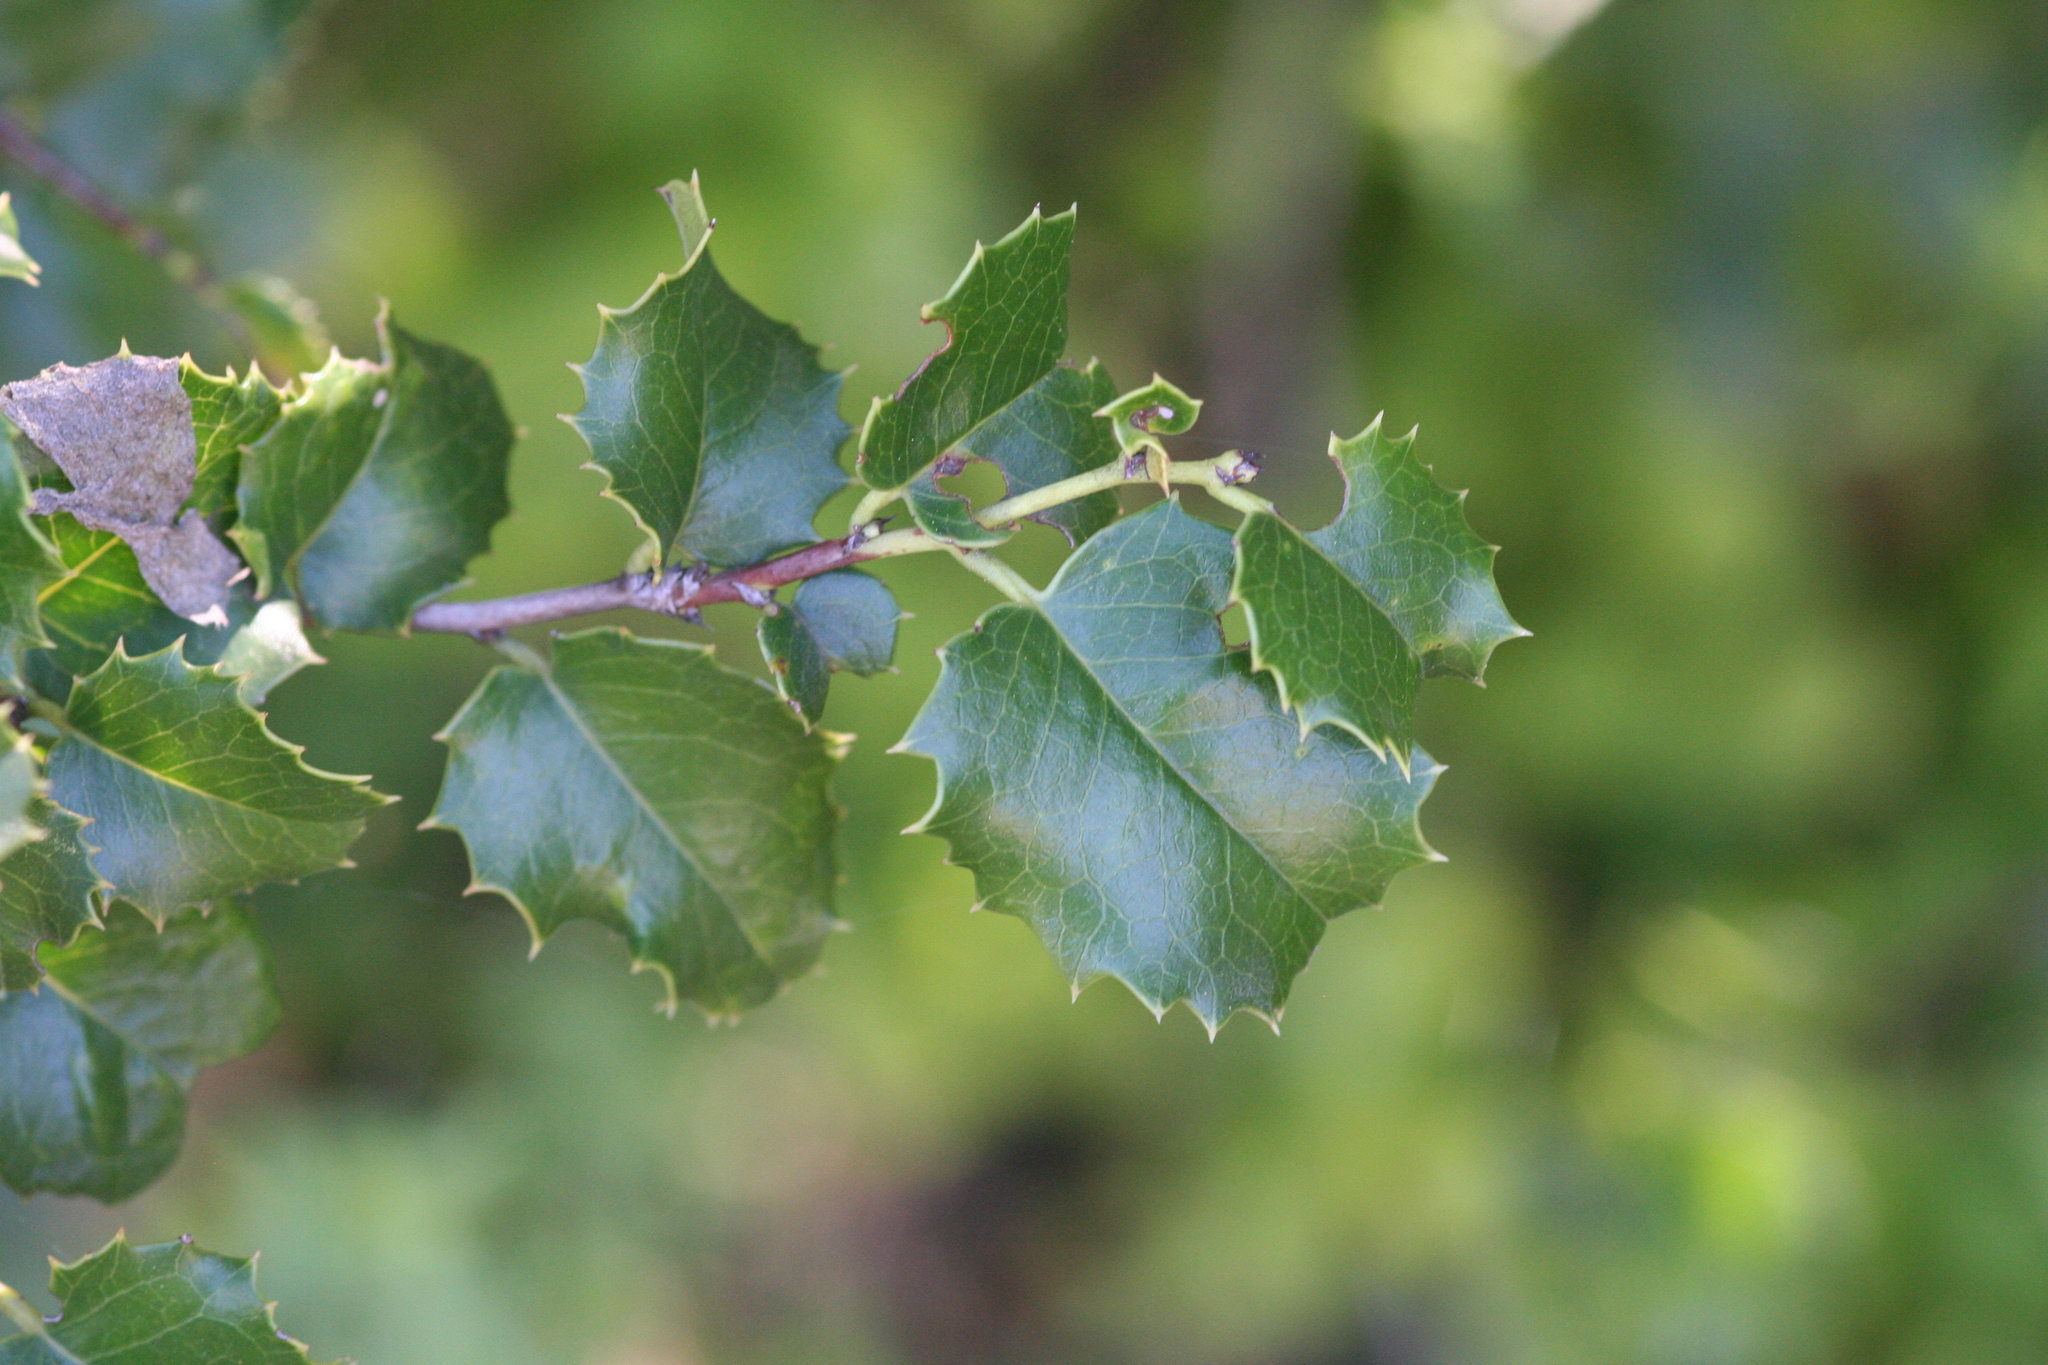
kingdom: Plantae
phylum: Tracheophyta
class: Magnoliopsida
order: Rosales
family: Rosaceae
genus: Prunus
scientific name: Prunus ilicifolia
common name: Hollyleaf cherry
